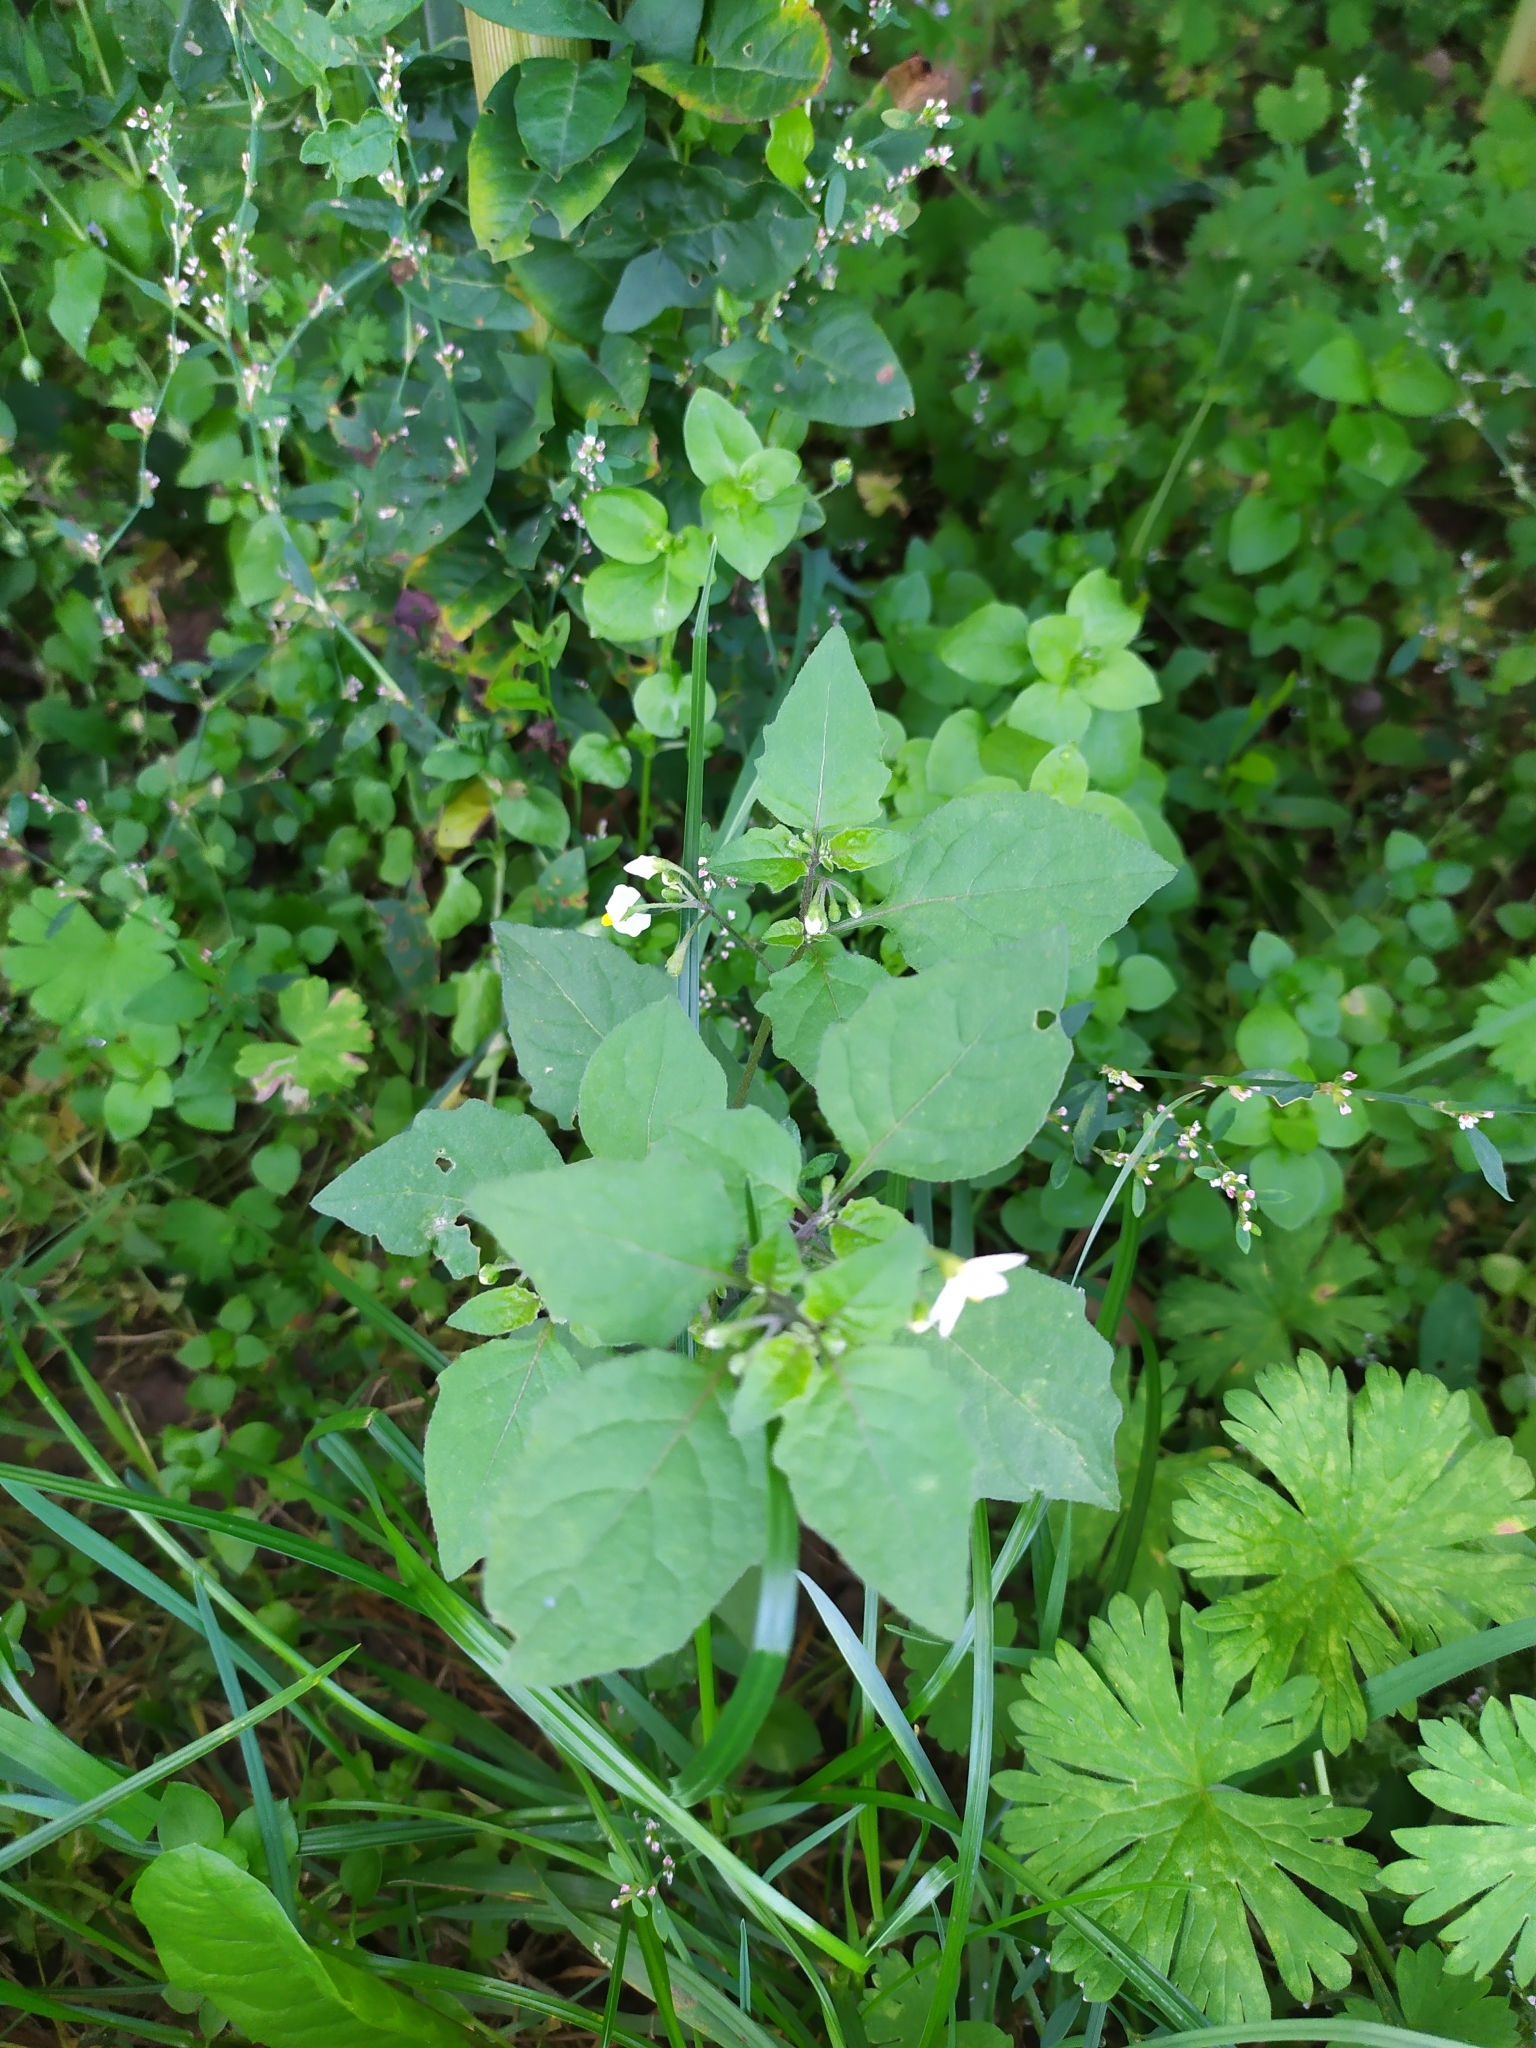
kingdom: Plantae
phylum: Tracheophyta
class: Magnoliopsida
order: Solanales
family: Solanaceae
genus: Solanum
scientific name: Solanum nigrum
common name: Black nightshade
